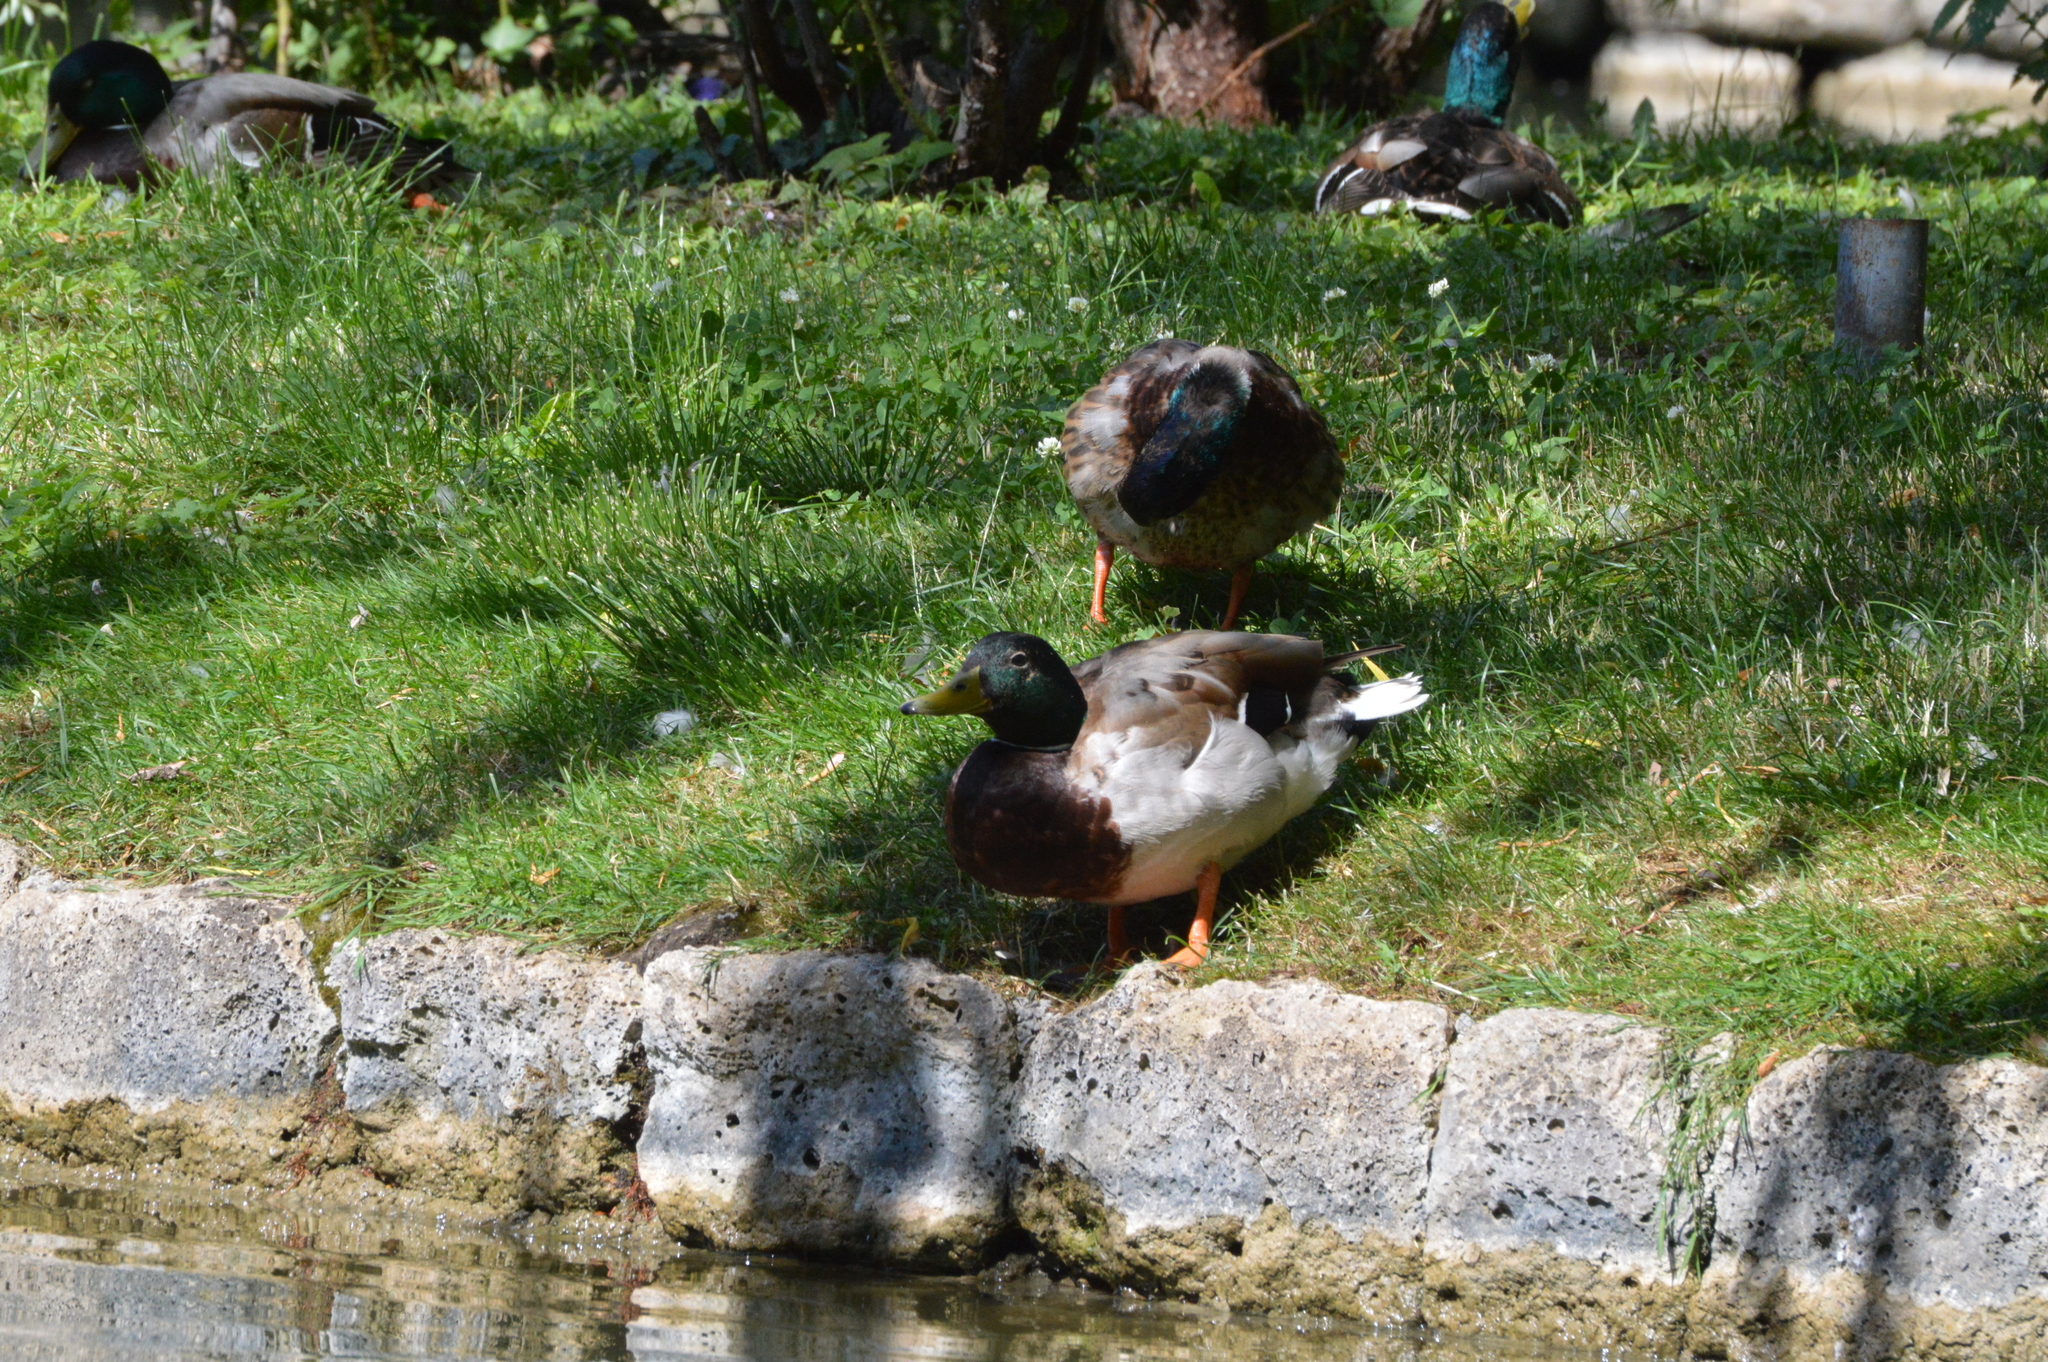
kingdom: Animalia
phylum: Chordata
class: Aves
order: Anseriformes
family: Anatidae
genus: Anas
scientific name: Anas platyrhynchos
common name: Mallard
